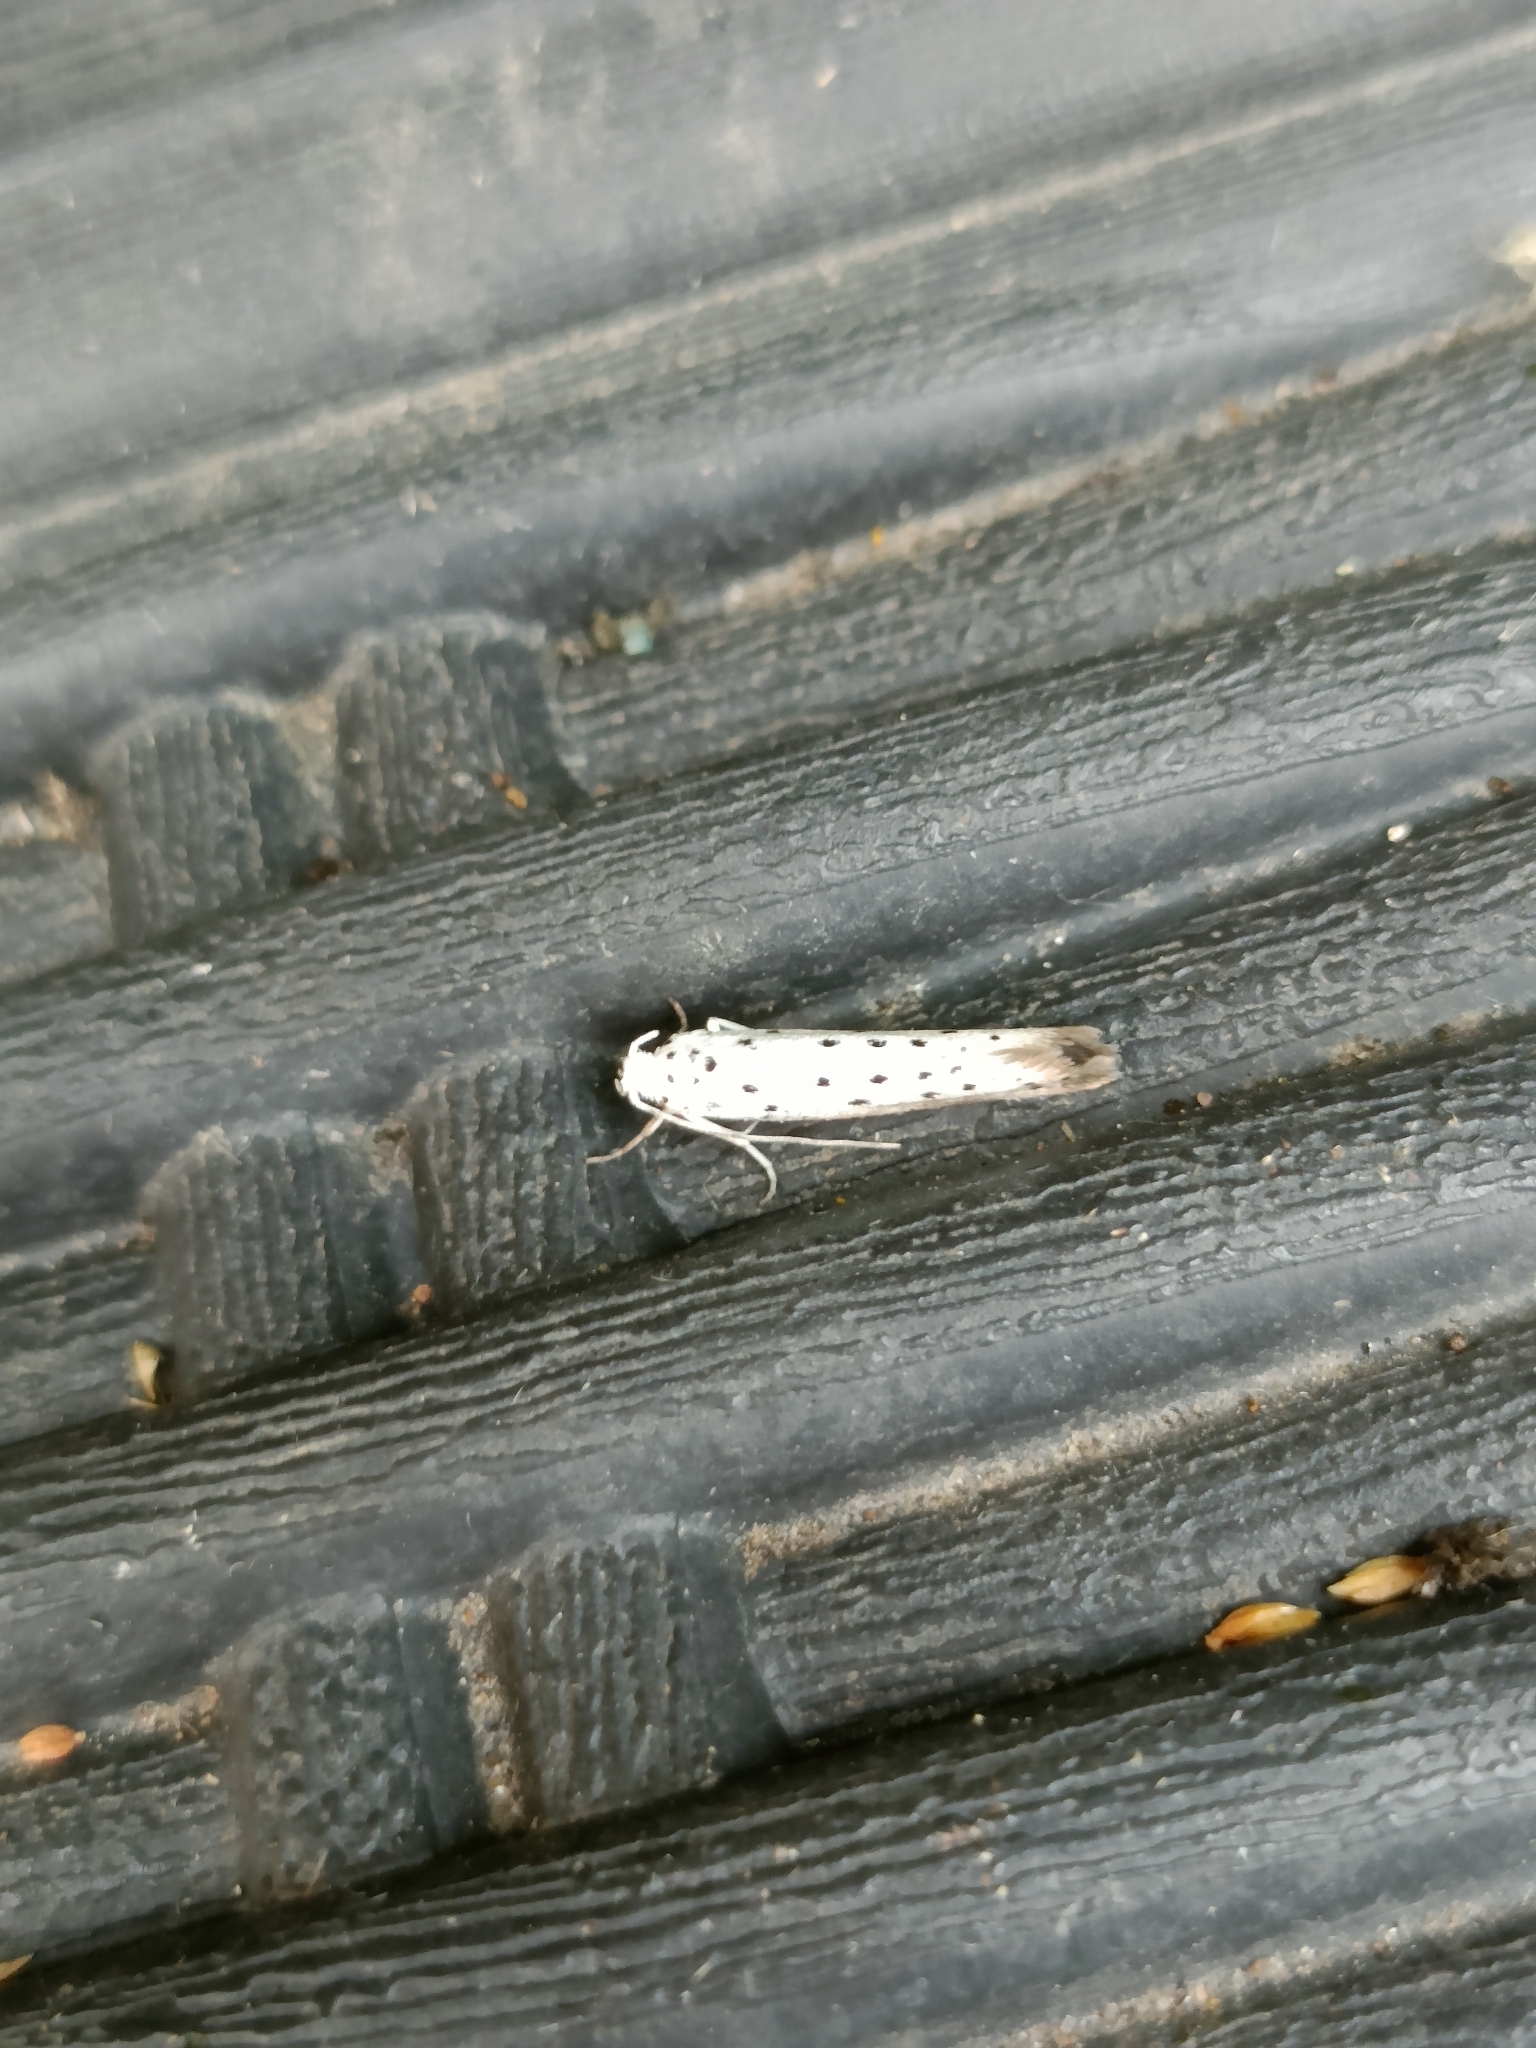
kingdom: Animalia
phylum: Arthropoda
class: Insecta
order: Lepidoptera
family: Yponomeutidae
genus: Yponomeuta
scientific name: Yponomeuta
